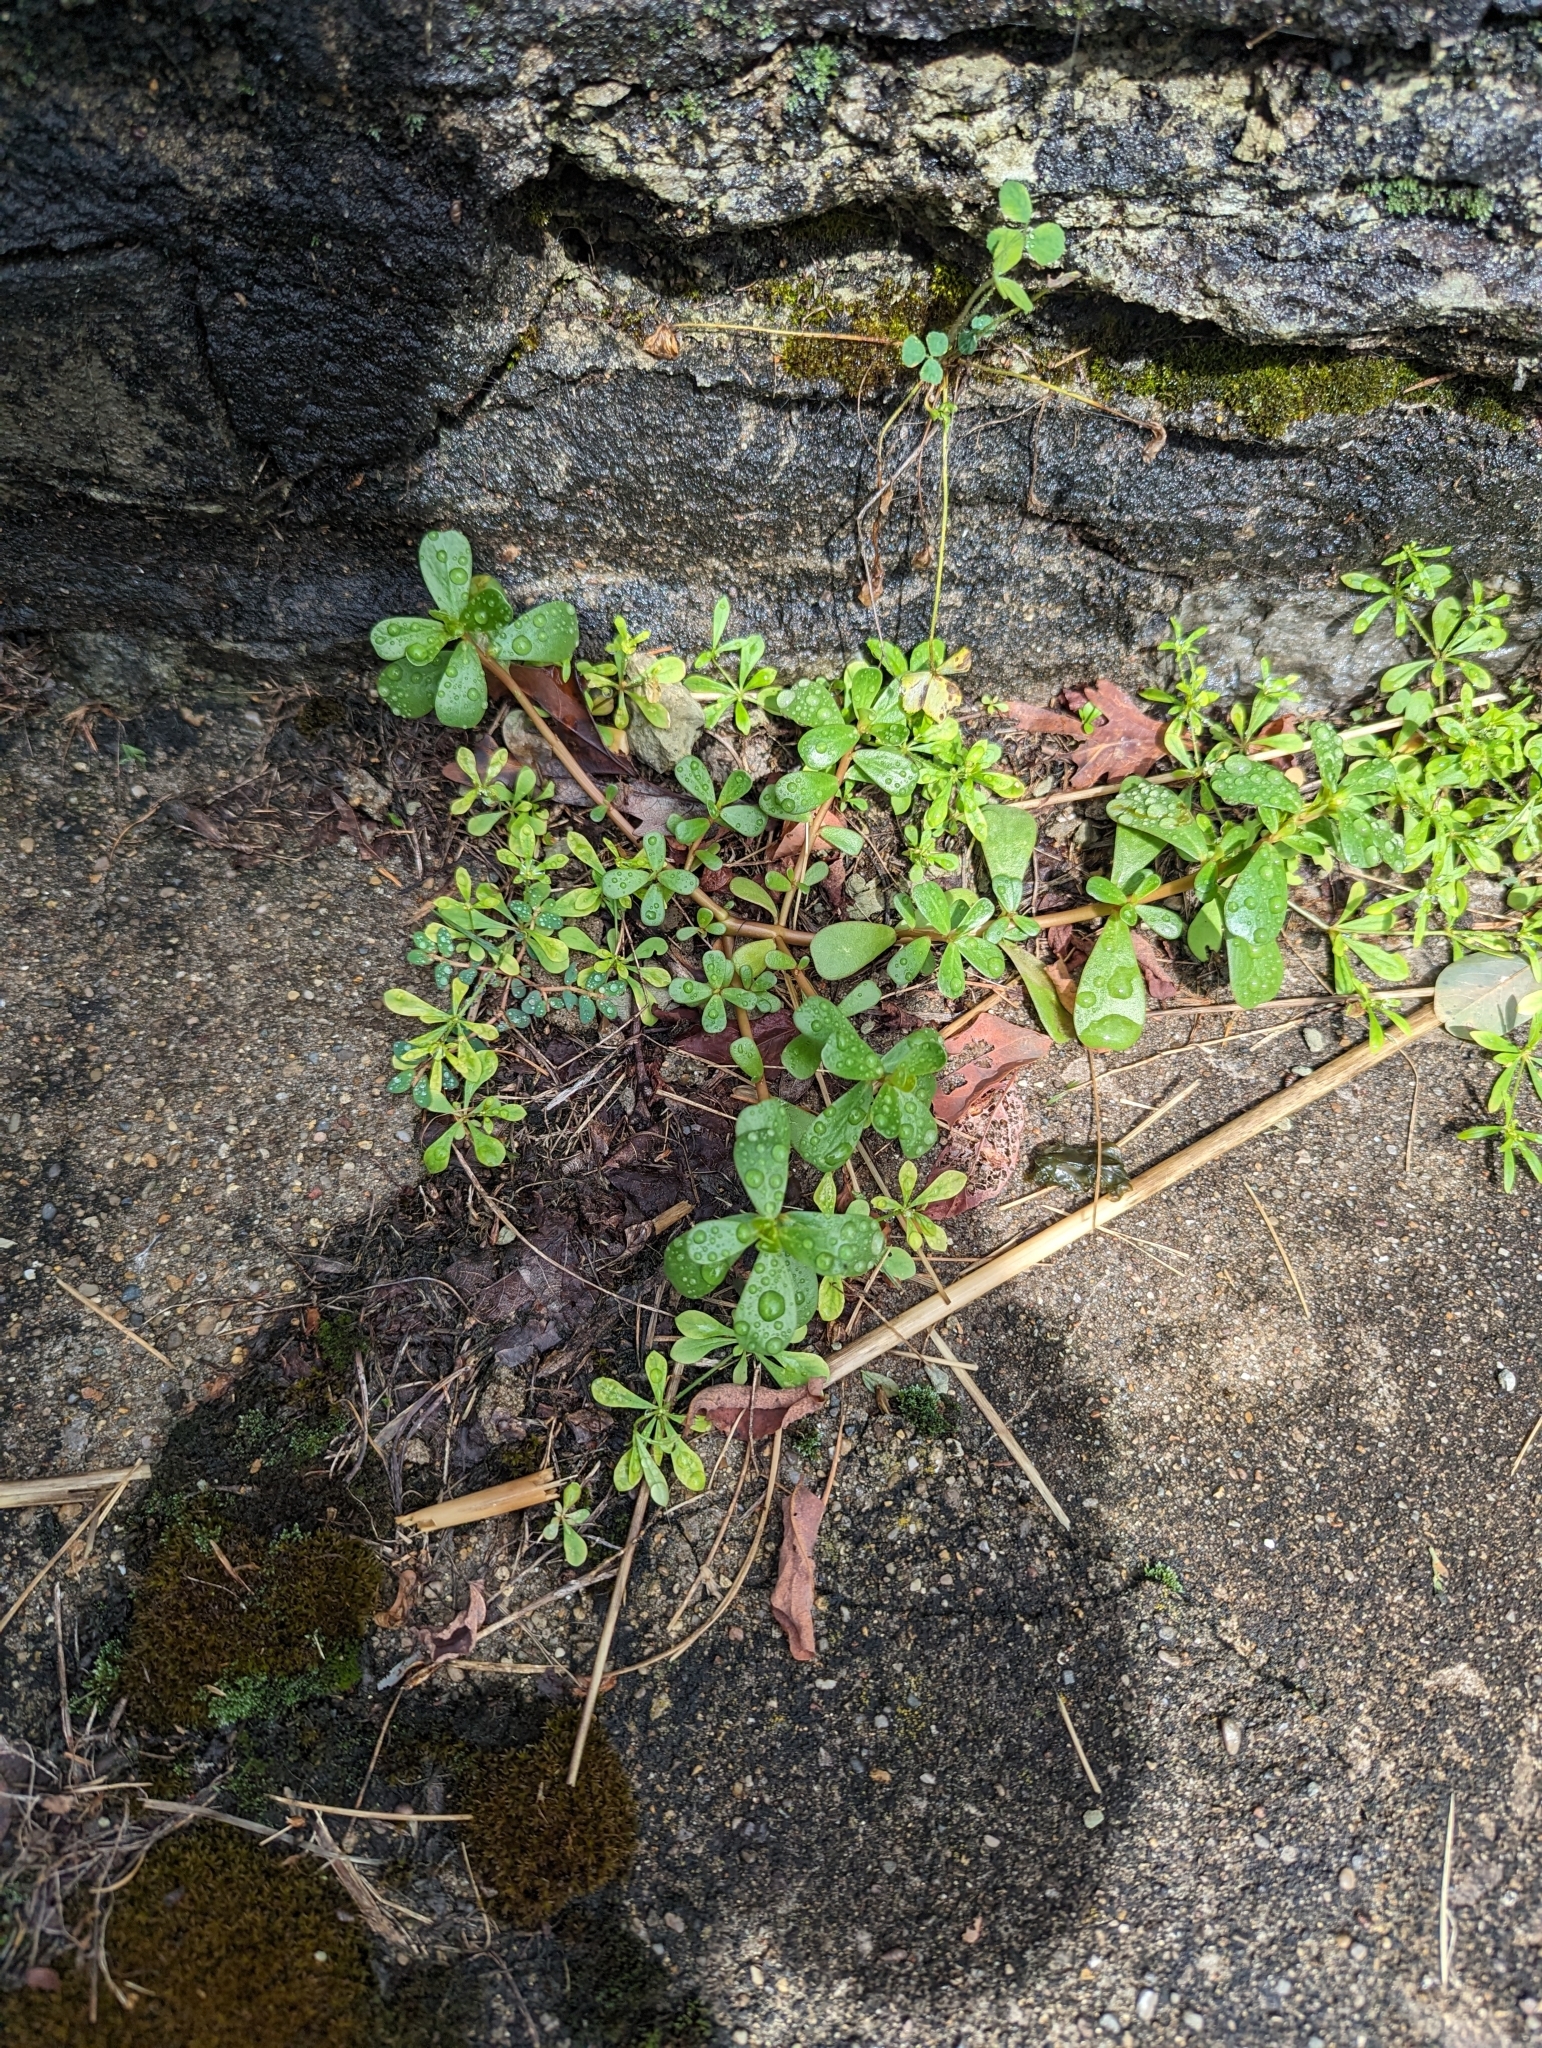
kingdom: Plantae
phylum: Tracheophyta
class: Magnoliopsida
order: Caryophyllales
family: Portulacaceae
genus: Portulaca
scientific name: Portulaca oleracea
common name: Common purslane
